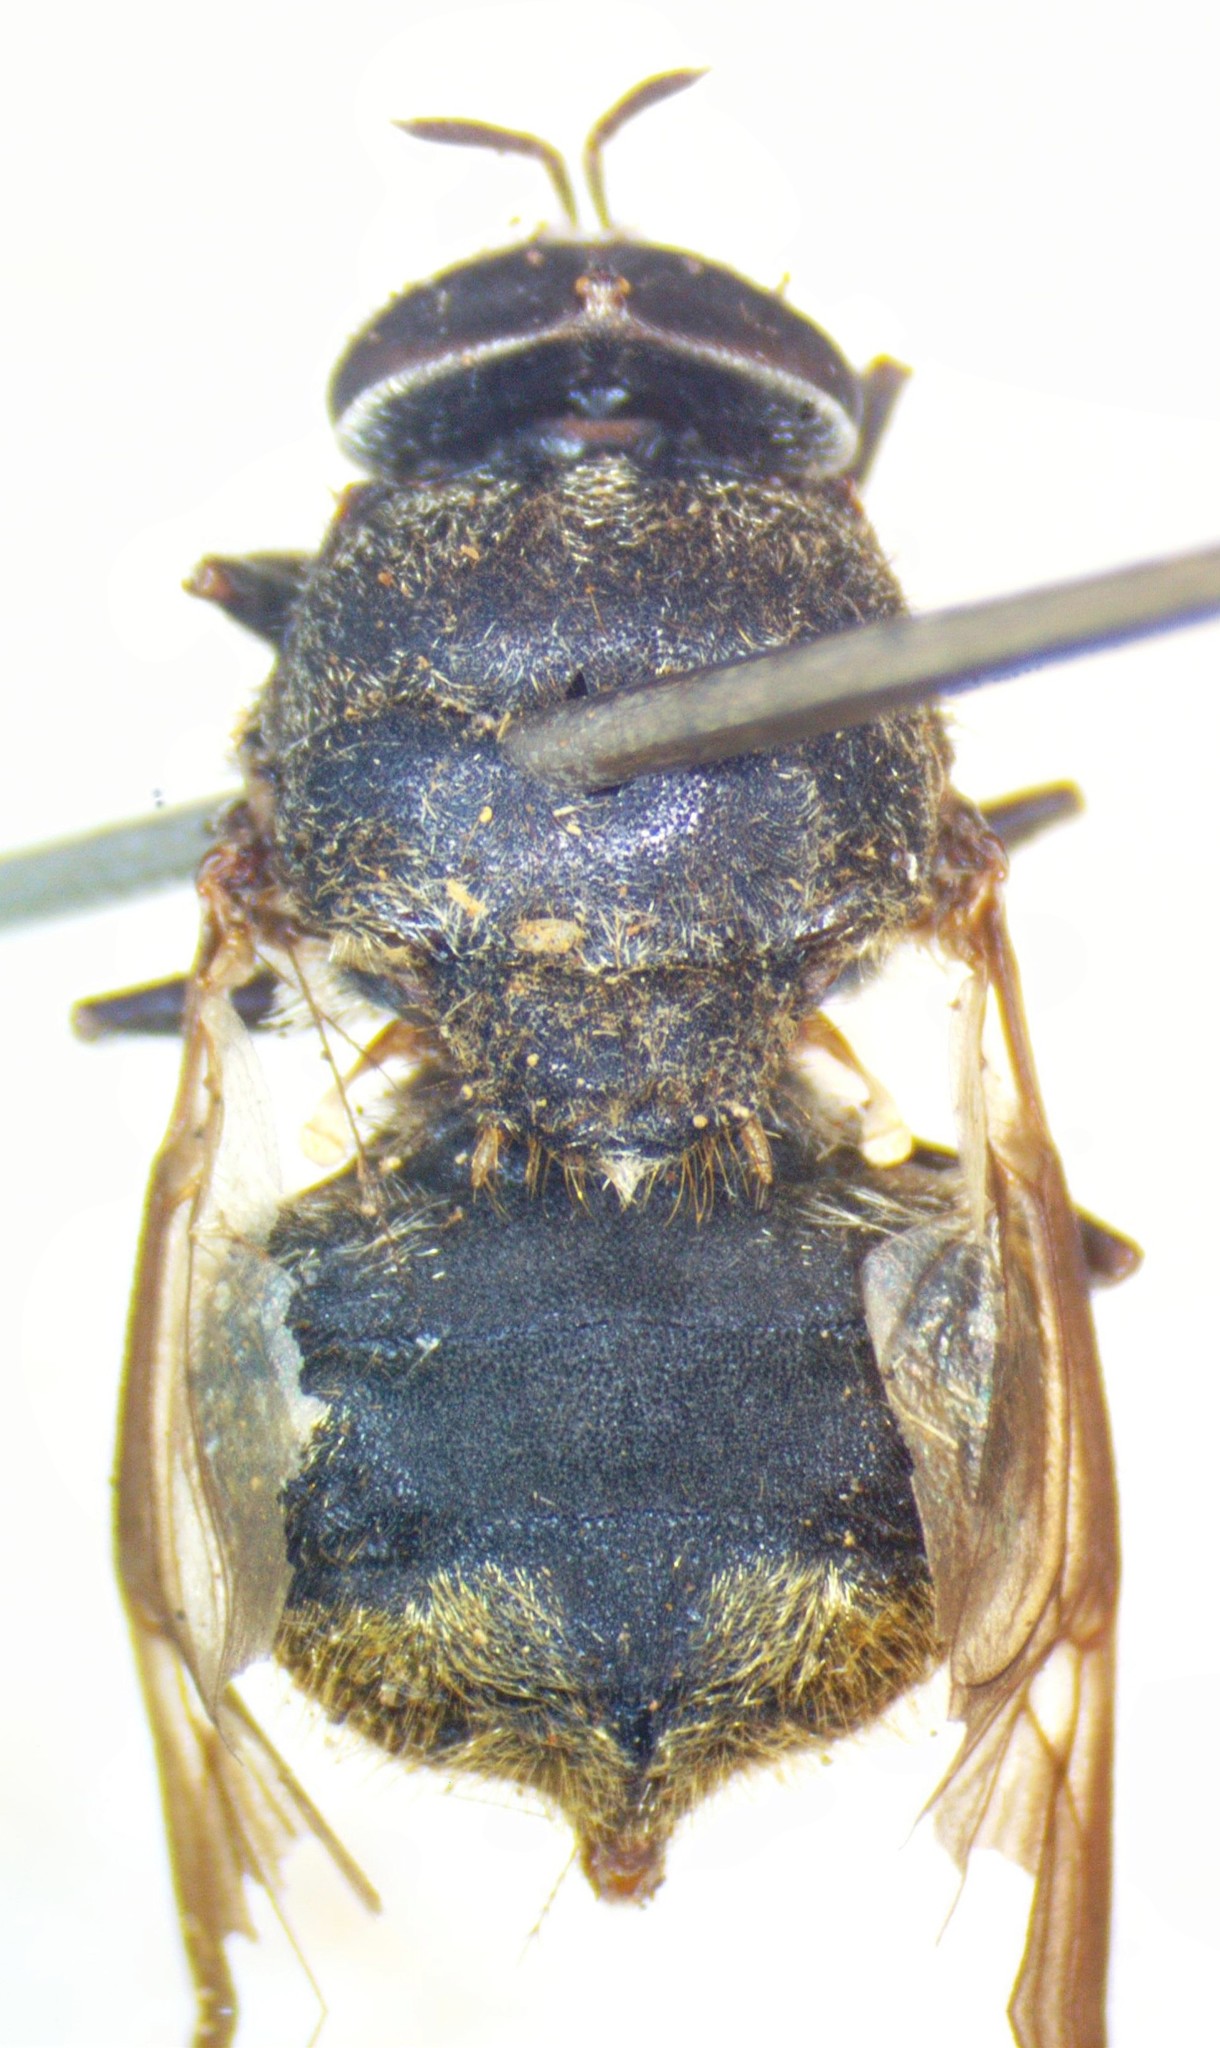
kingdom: Animalia
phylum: Arthropoda
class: Insecta
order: Diptera
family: Stratiomyidae
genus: Dicyphoma
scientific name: Dicyphoma schaefferi
